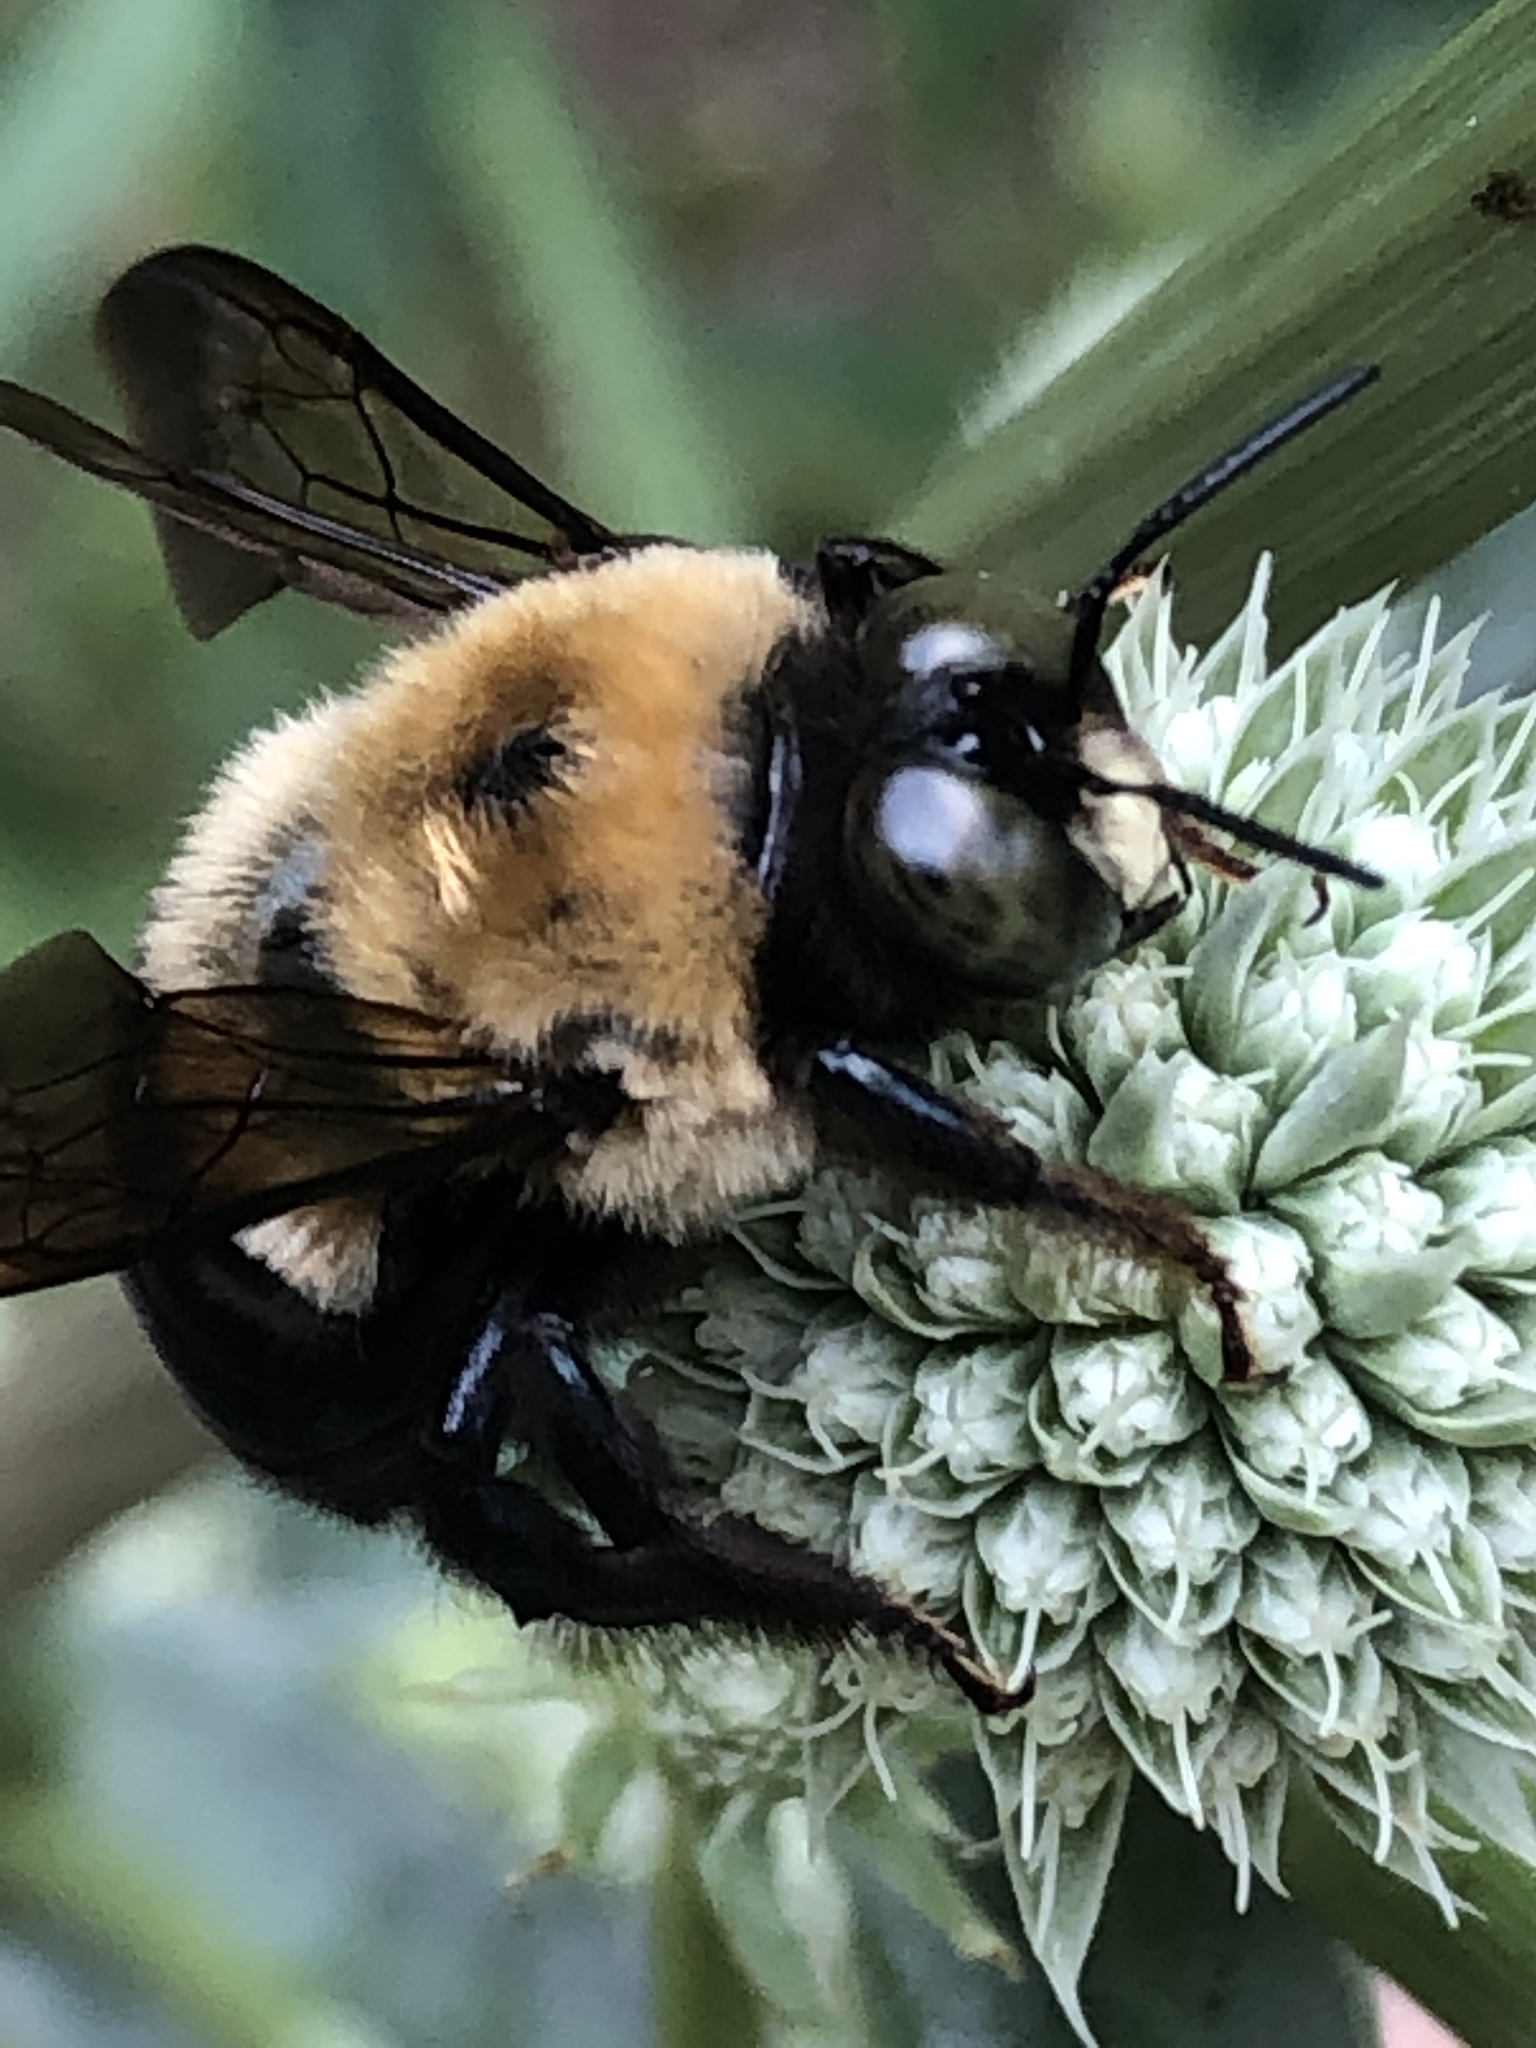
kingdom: Animalia
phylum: Arthropoda
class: Insecta
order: Hymenoptera
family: Apidae
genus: Xylocopa
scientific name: Xylocopa virginica
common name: Carpenter bee
